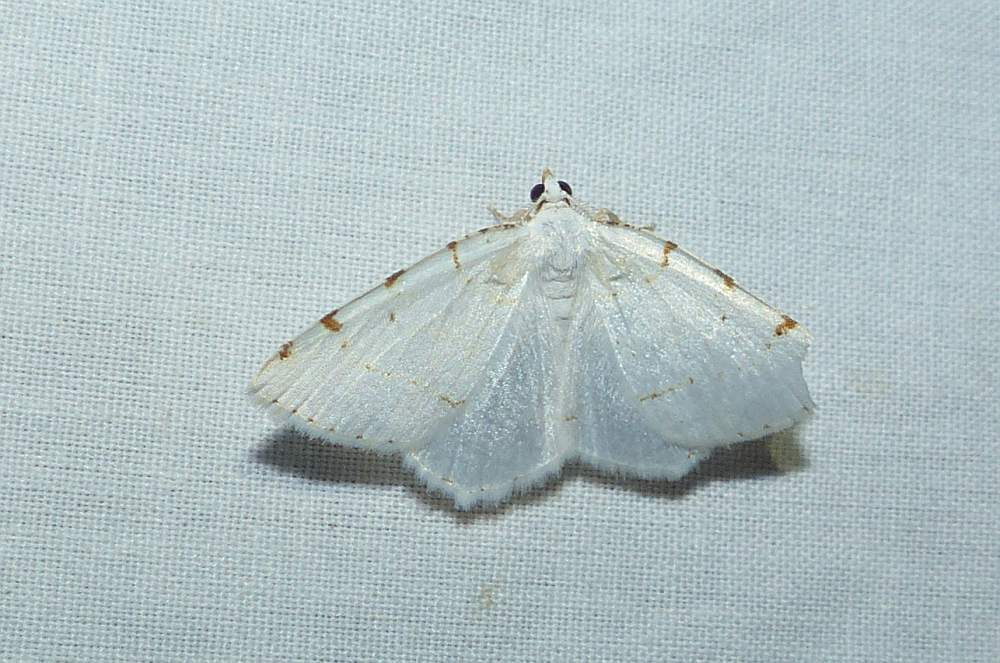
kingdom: Animalia
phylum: Arthropoda
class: Insecta
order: Lepidoptera
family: Geometridae
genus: Macaria
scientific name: Macaria pustularia
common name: Lesser maple spanworm moth
